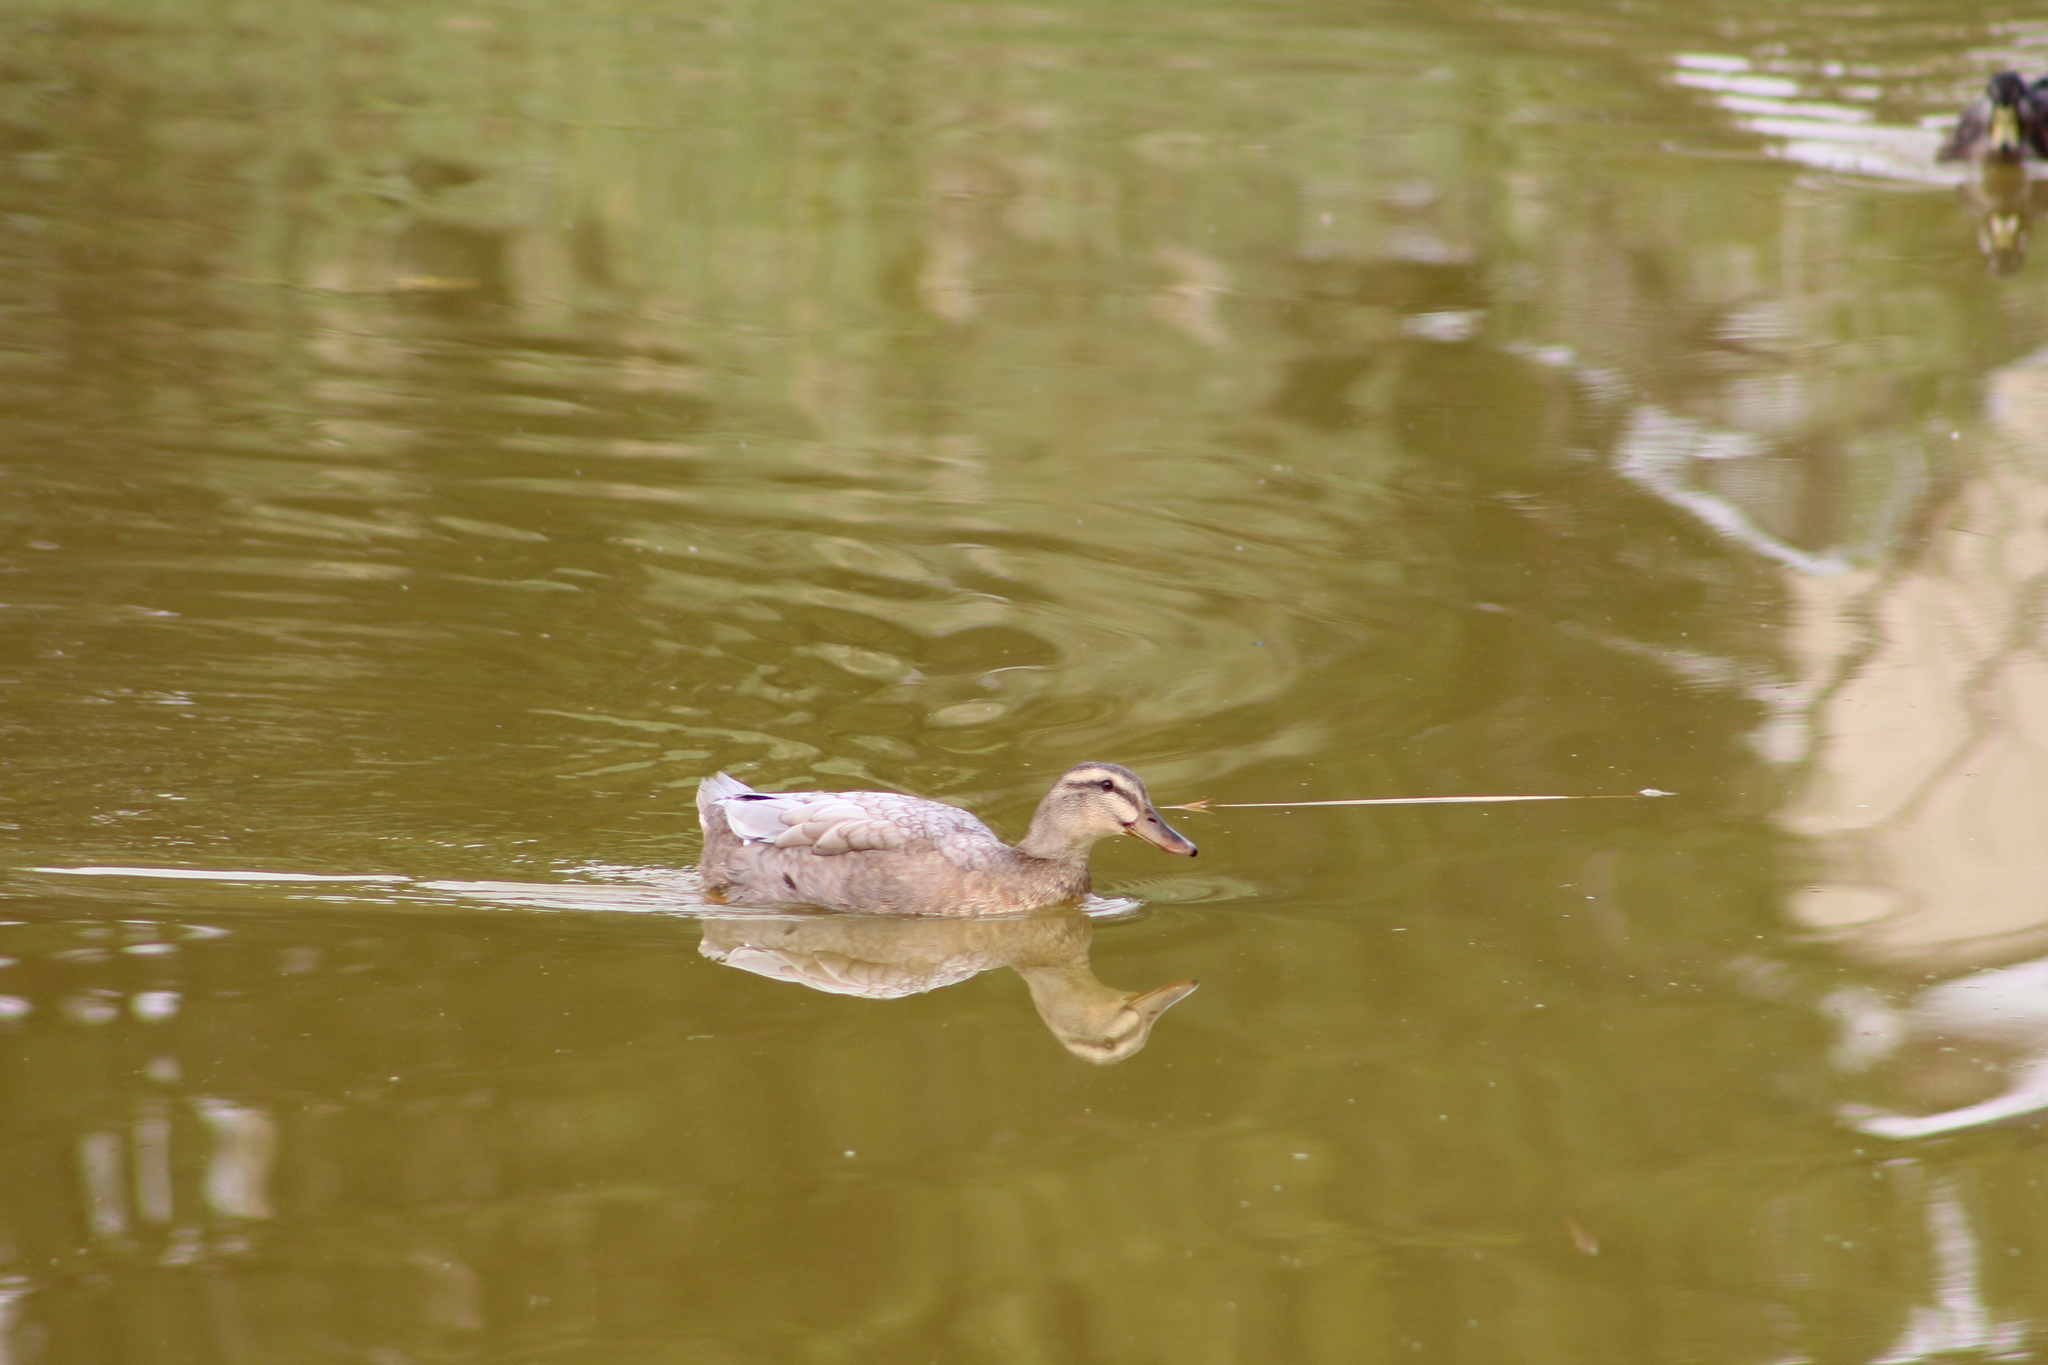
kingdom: Animalia
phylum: Chordata
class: Aves
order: Anseriformes
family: Anatidae
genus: Anas
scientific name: Anas platyrhynchos
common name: Mallard
